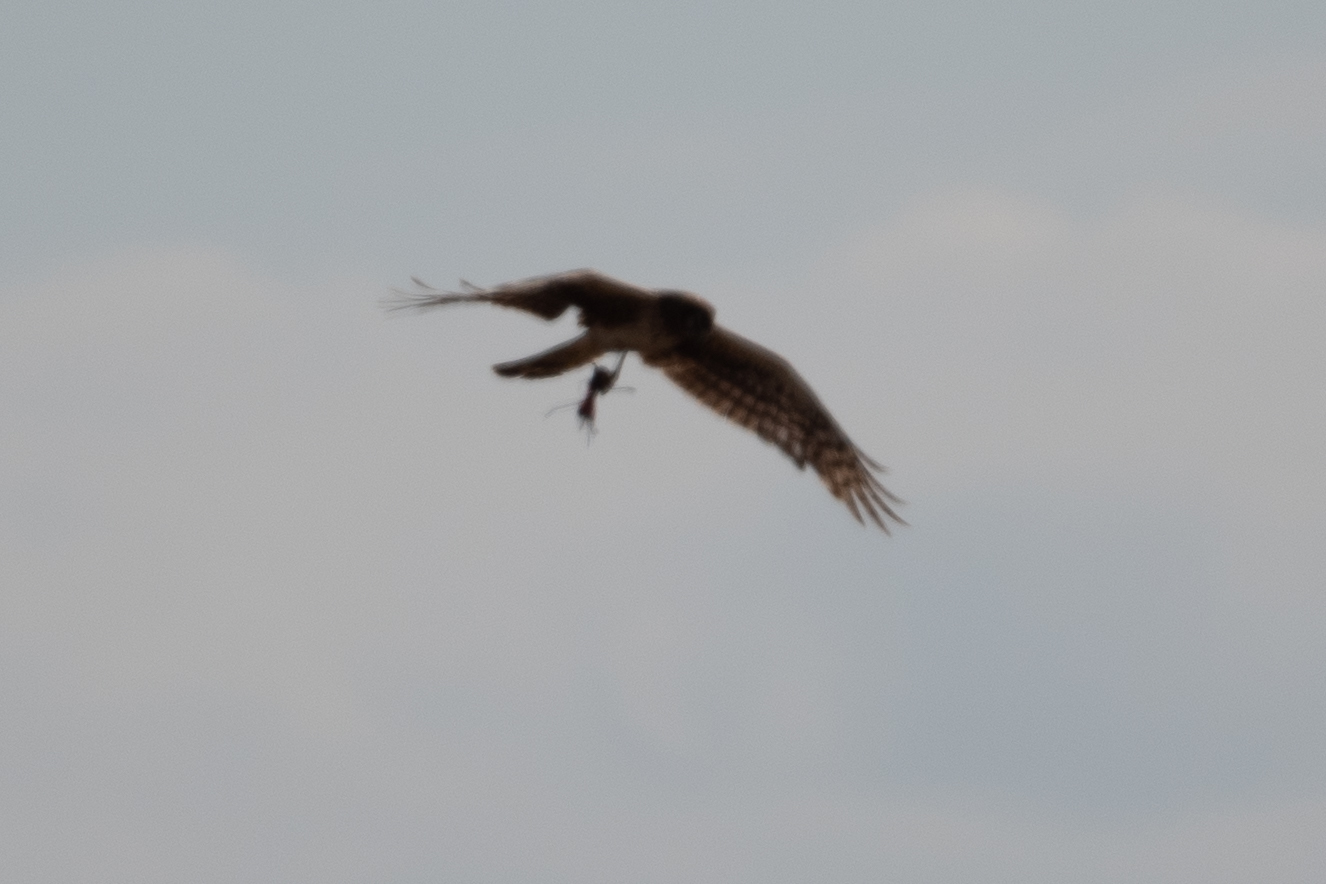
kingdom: Animalia
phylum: Chordata
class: Aves
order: Accipitriformes
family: Accipitridae
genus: Circus
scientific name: Circus cyaneus
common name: Hen harrier
